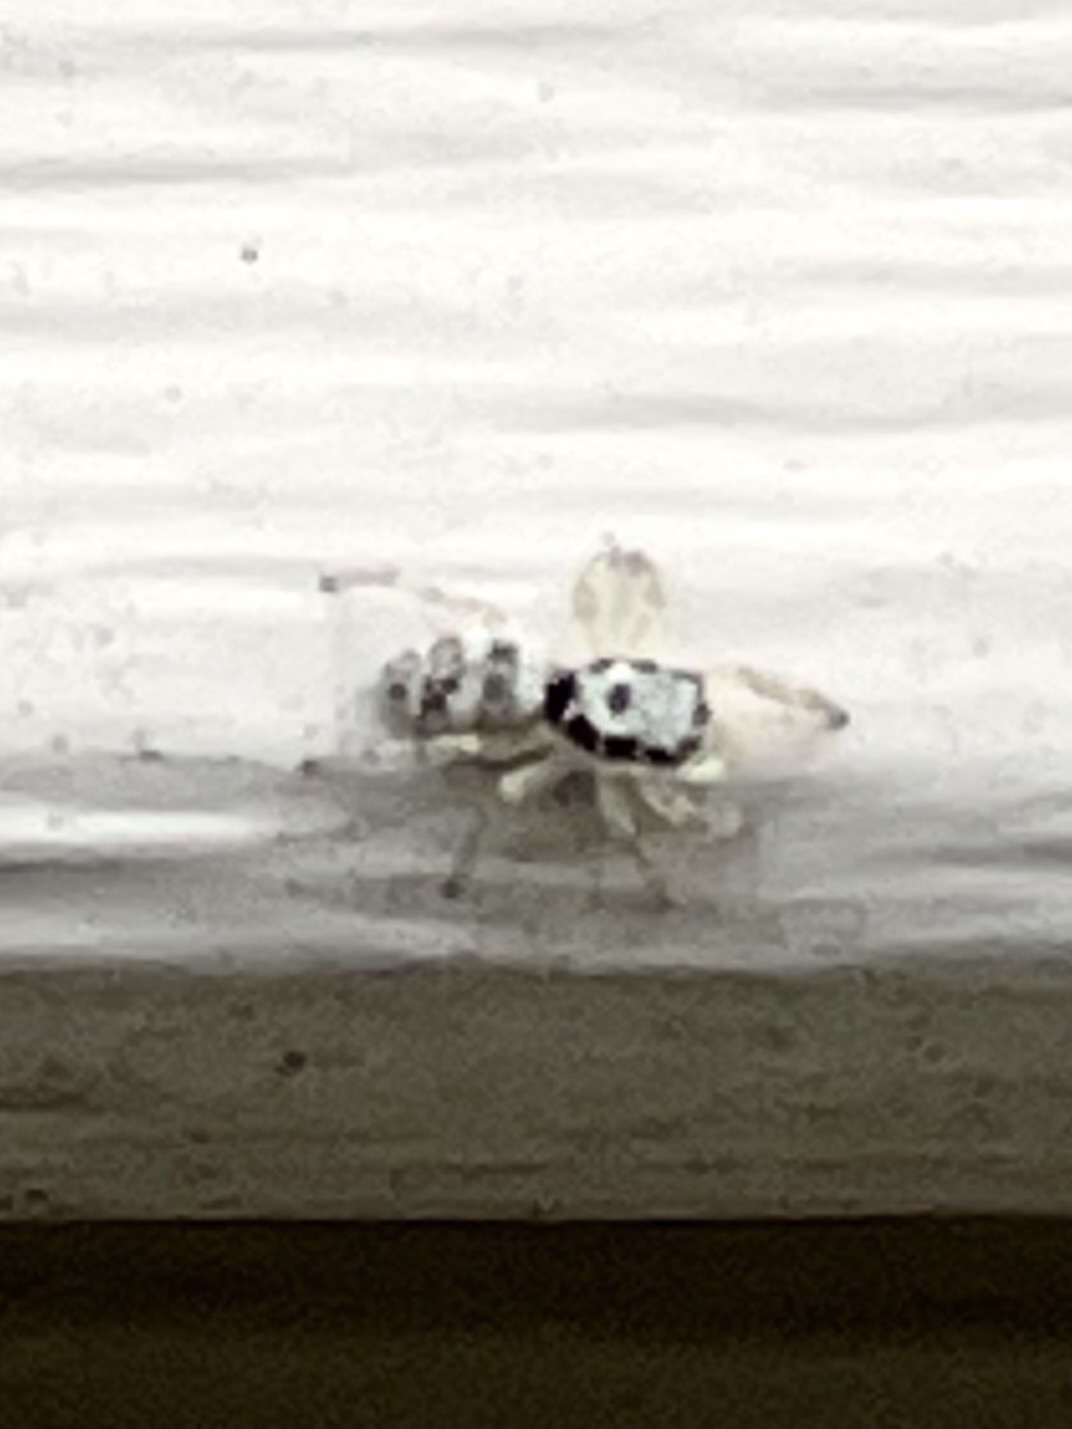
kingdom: Animalia
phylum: Arthropoda
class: Arachnida
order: Araneae
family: Salticidae
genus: Salticus
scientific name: Salticus scenicus
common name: Zebra jumper
